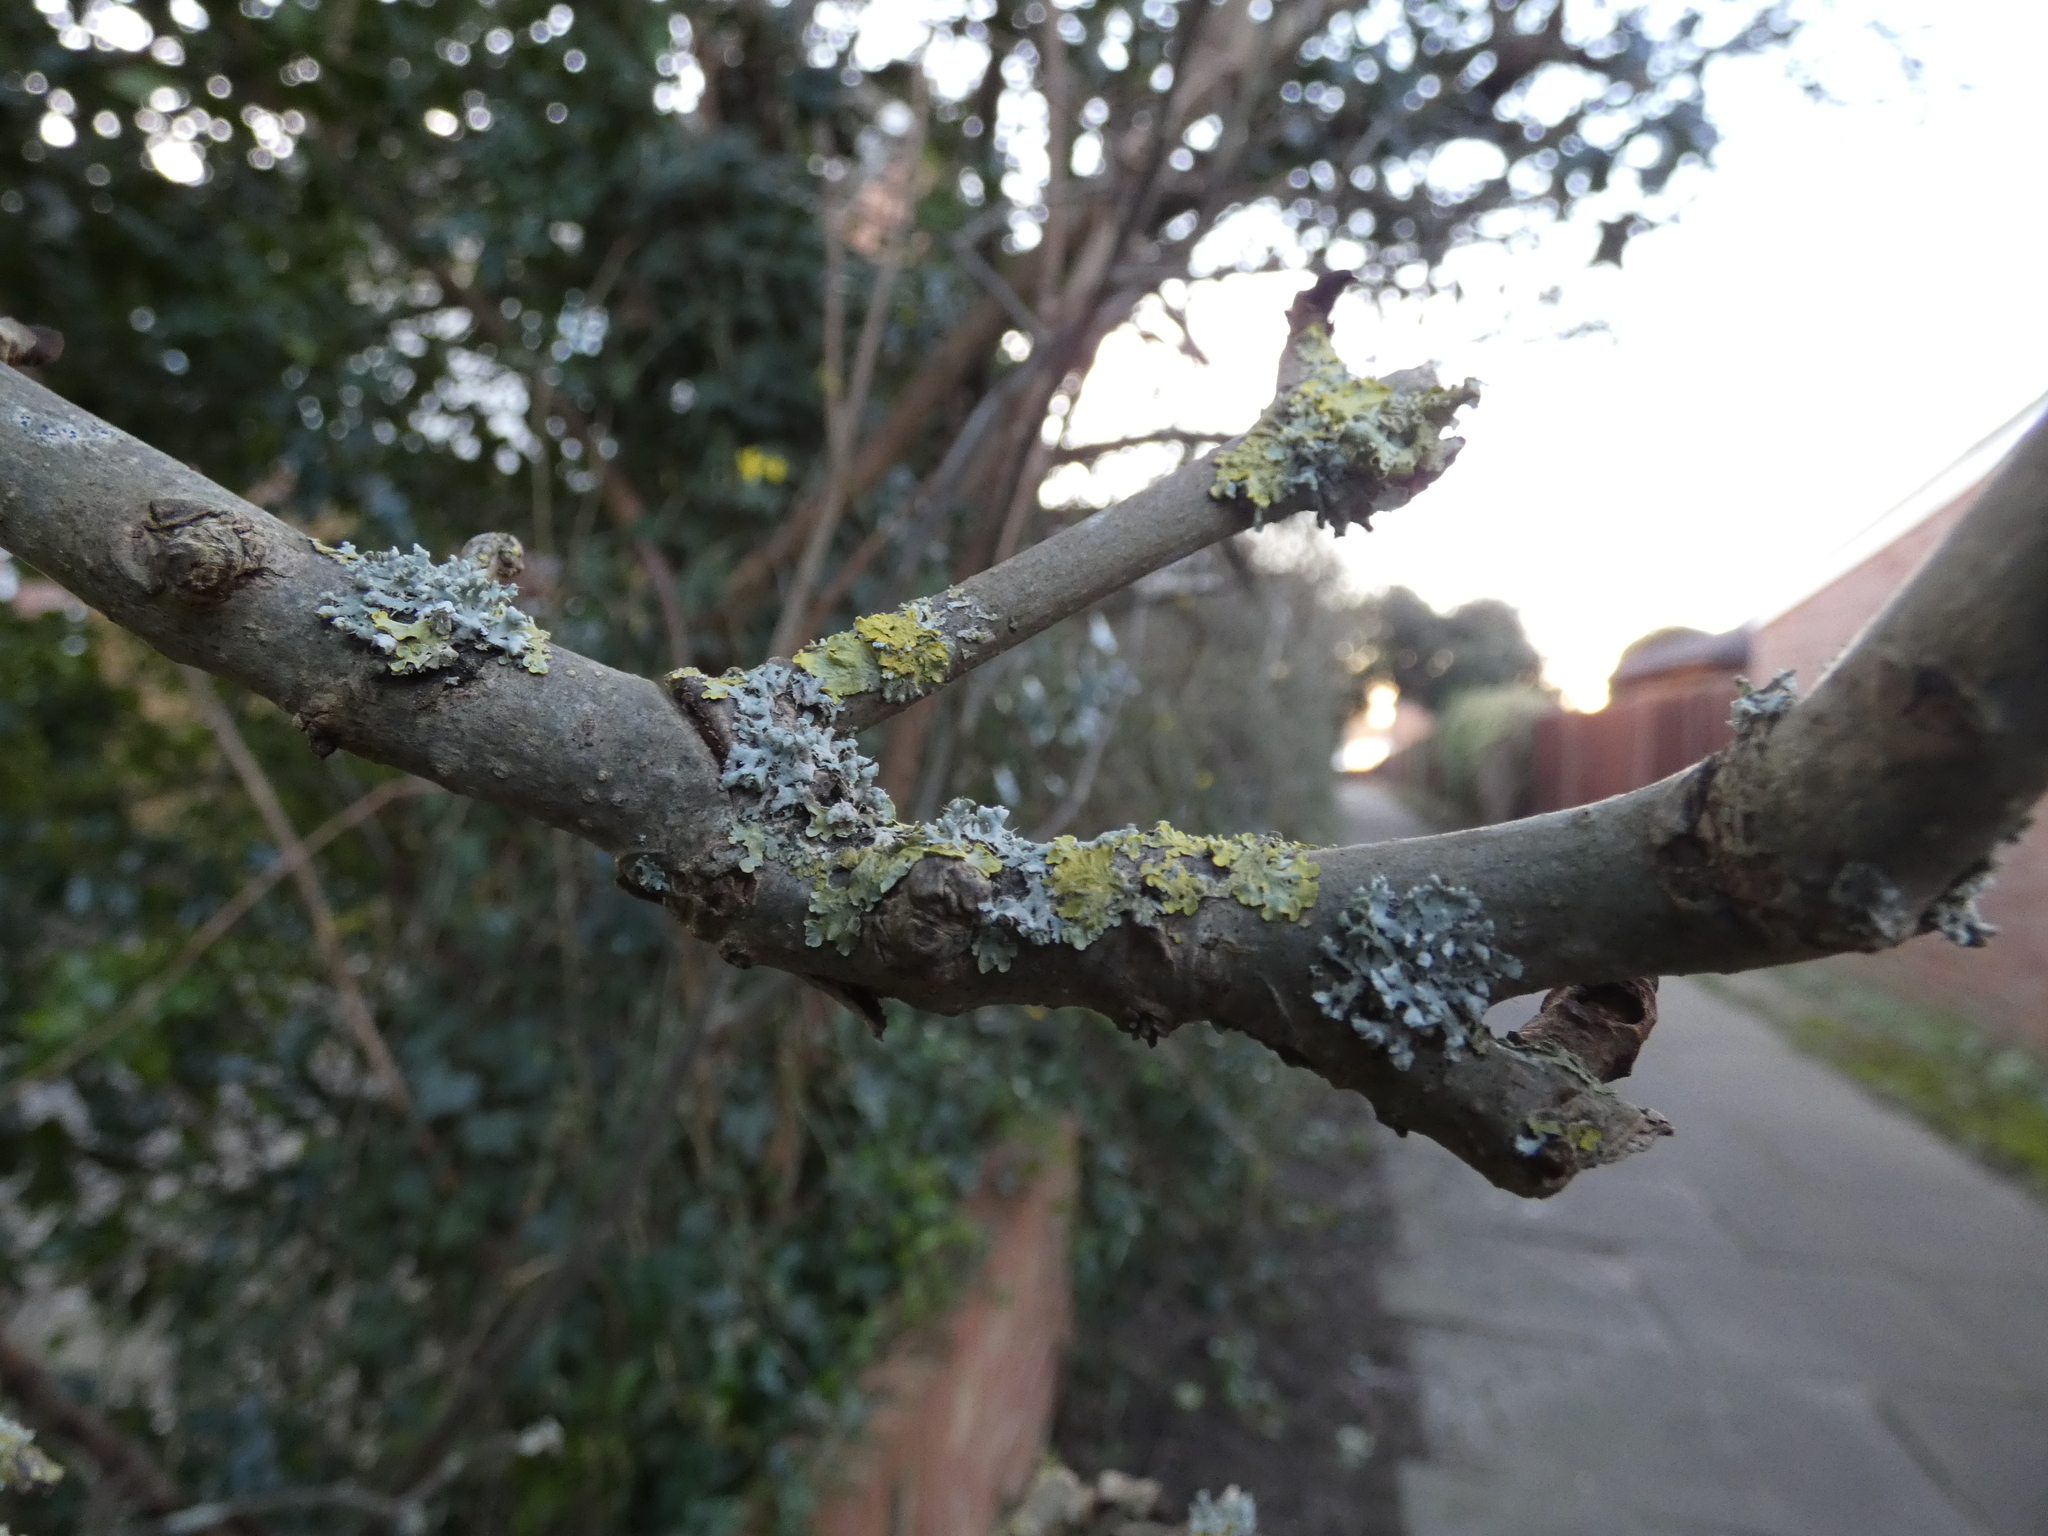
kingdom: Fungi
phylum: Ascomycota
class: Lecanoromycetes
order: Caliciales
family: Physciaceae
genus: Physcia
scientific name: Physcia adscendens
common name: Hooded rosette lichen
